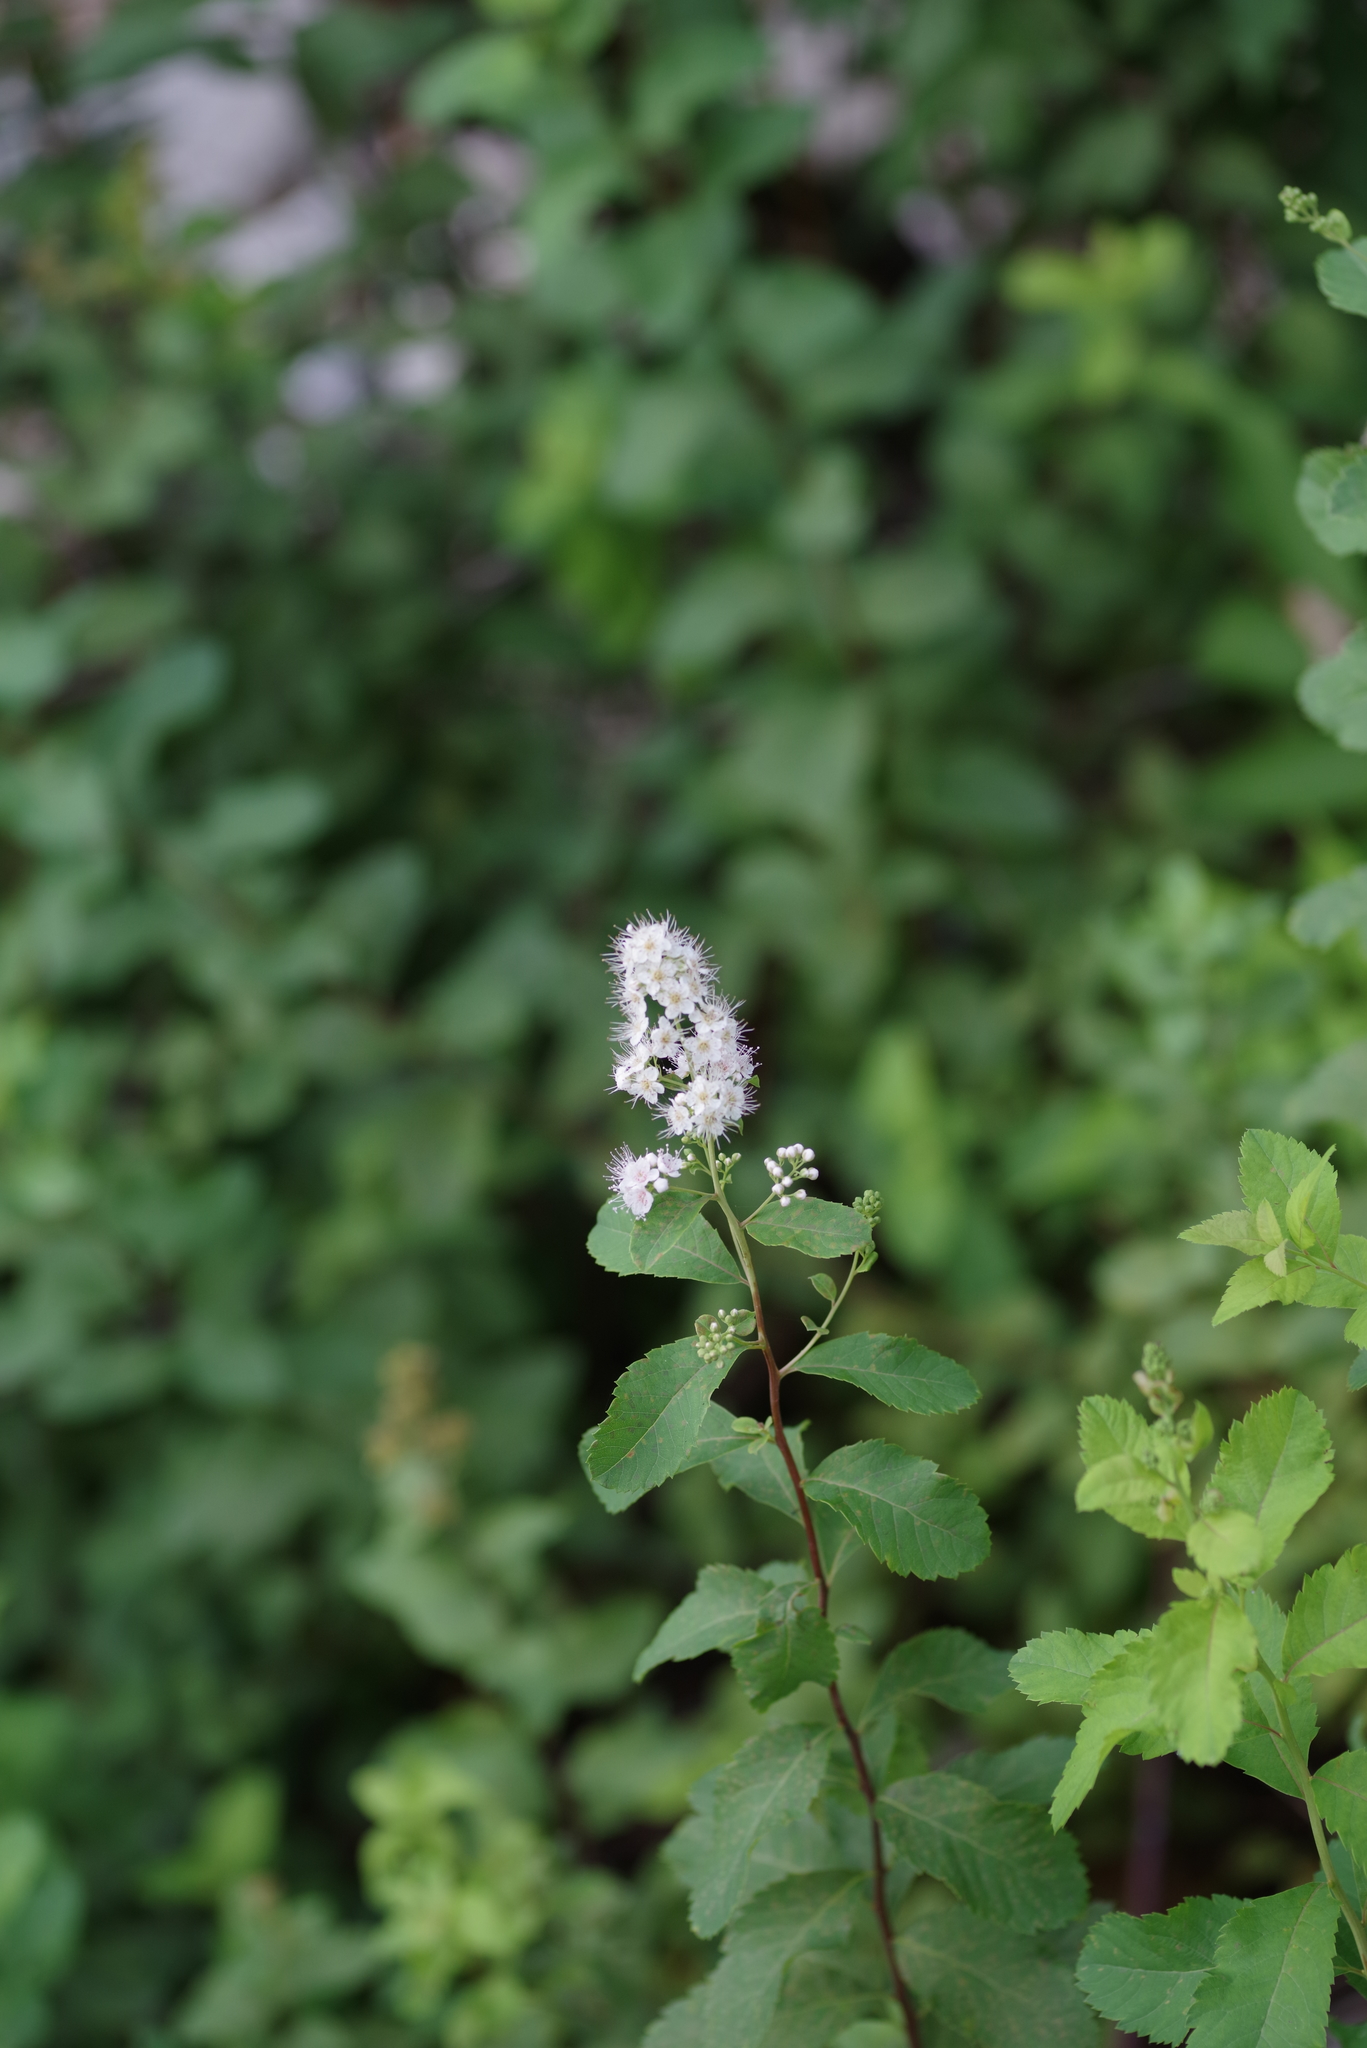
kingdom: Plantae
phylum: Tracheophyta
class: Magnoliopsida
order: Rosales
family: Rosaceae
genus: Spiraea
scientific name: Spiraea alba
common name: Pale bridewort
